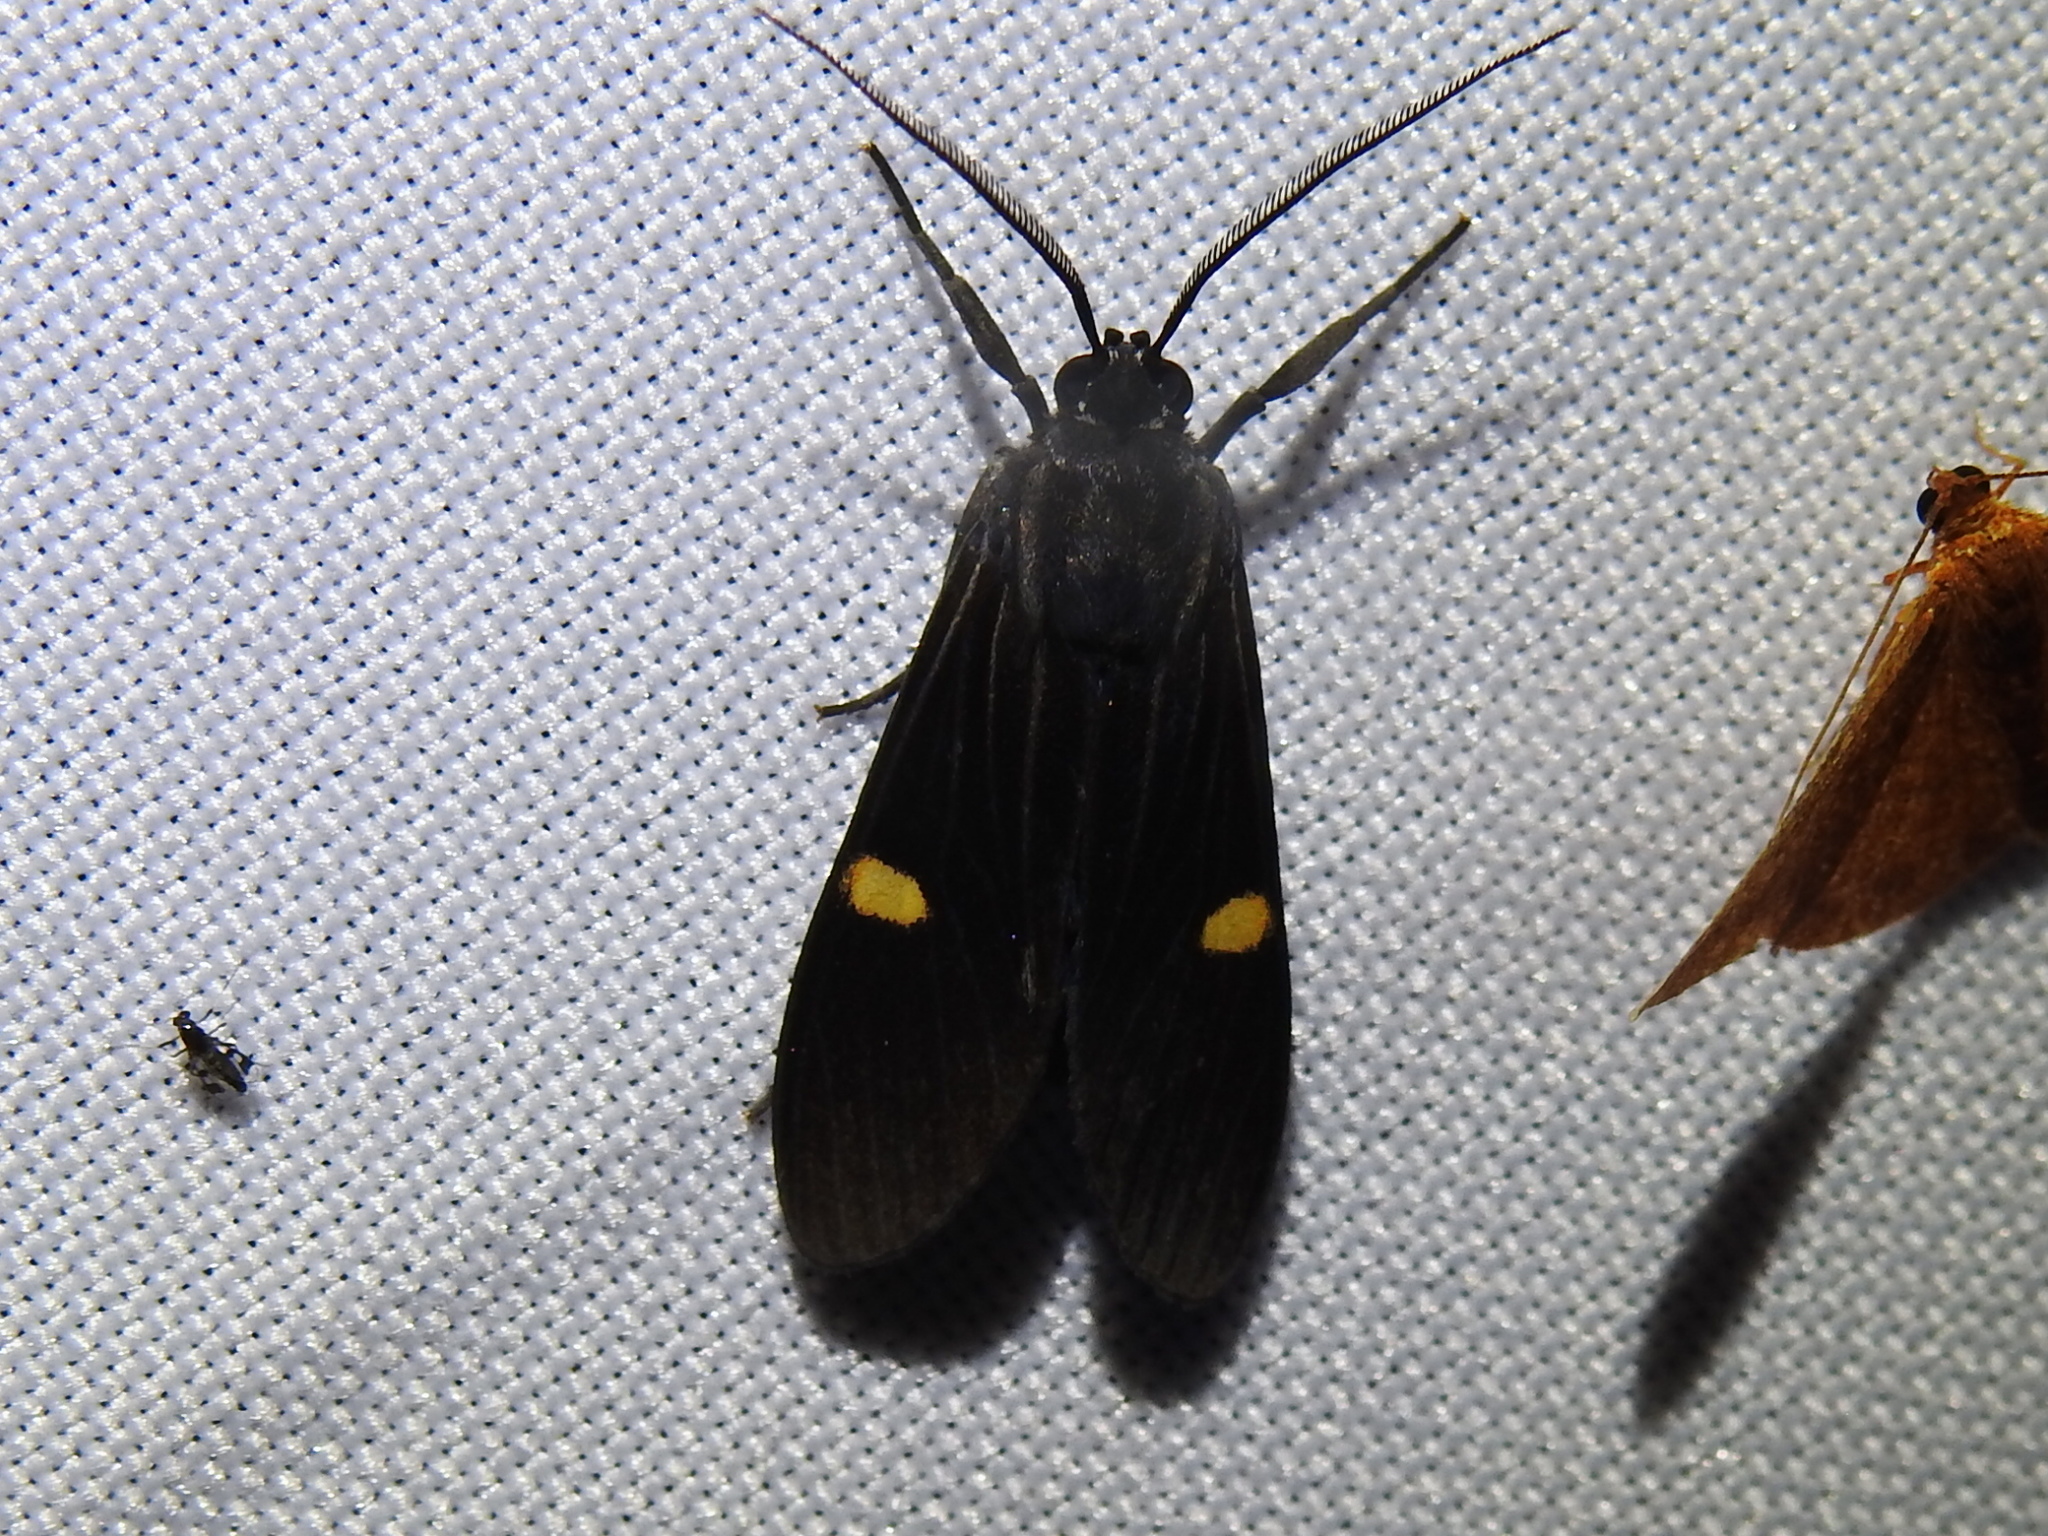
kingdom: Animalia
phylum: Arthropoda
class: Insecta
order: Lepidoptera
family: Erebidae
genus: Aclytia
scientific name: Aclytia punctata
